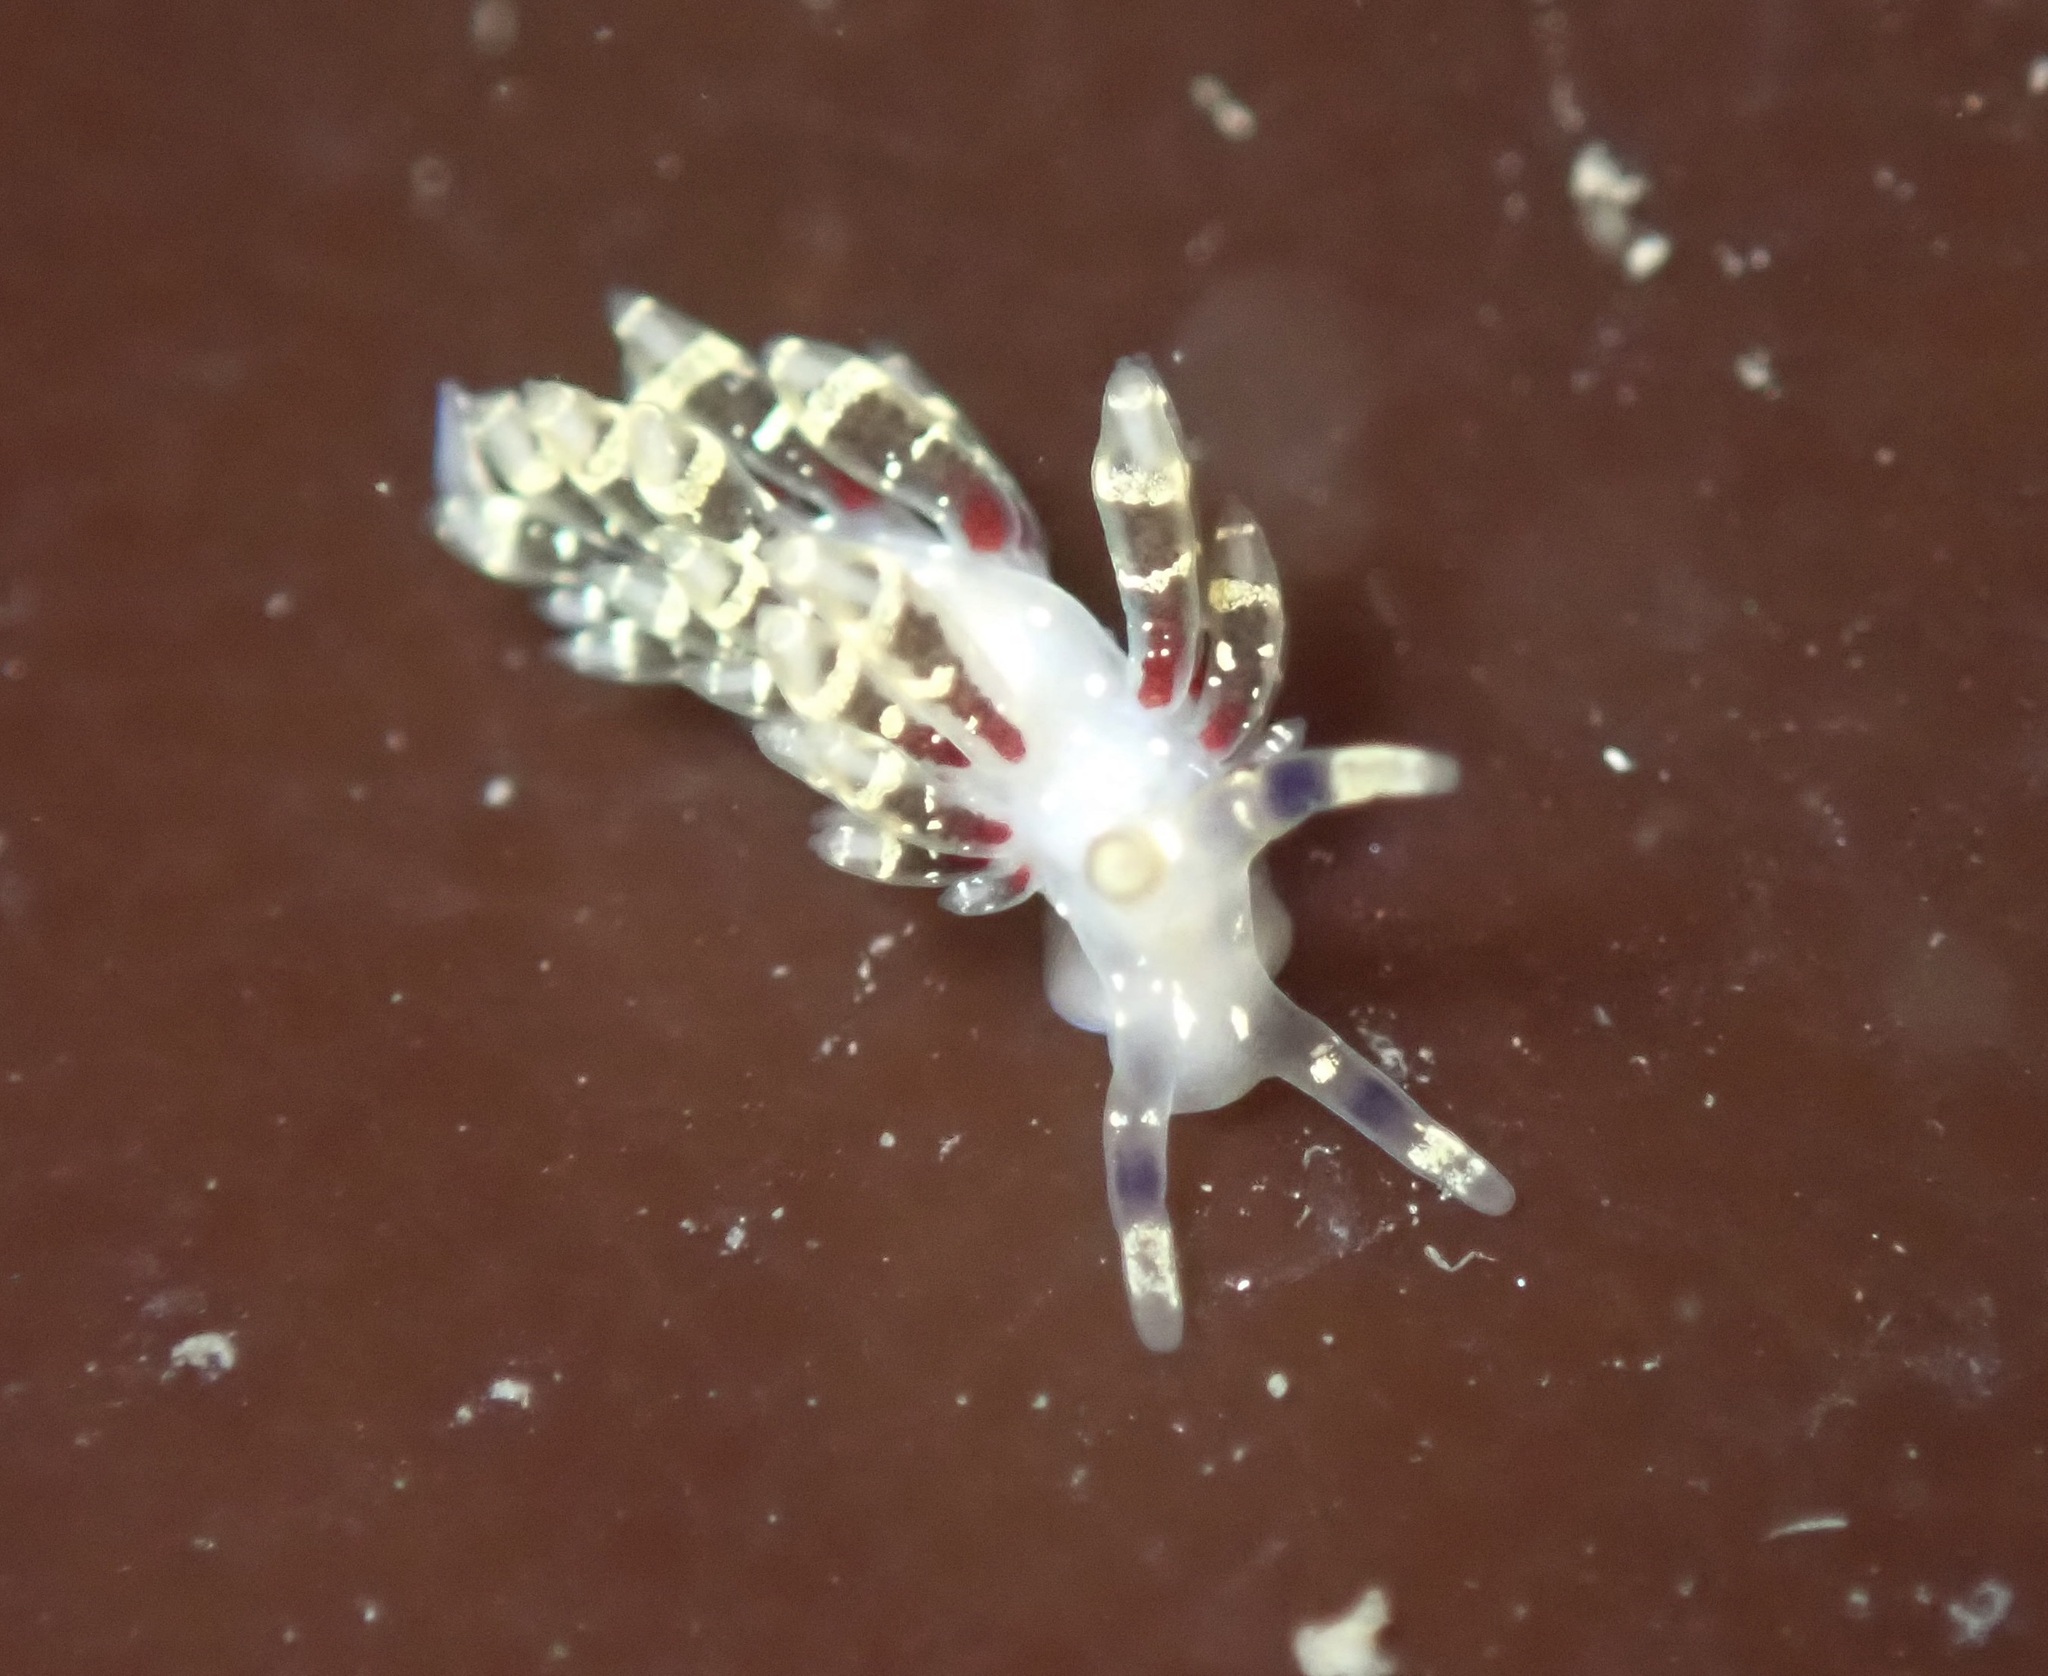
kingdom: Animalia
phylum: Mollusca
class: Gastropoda
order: Nudibranchia
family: Abronicidae
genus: Abronica
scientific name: Abronica abronia
